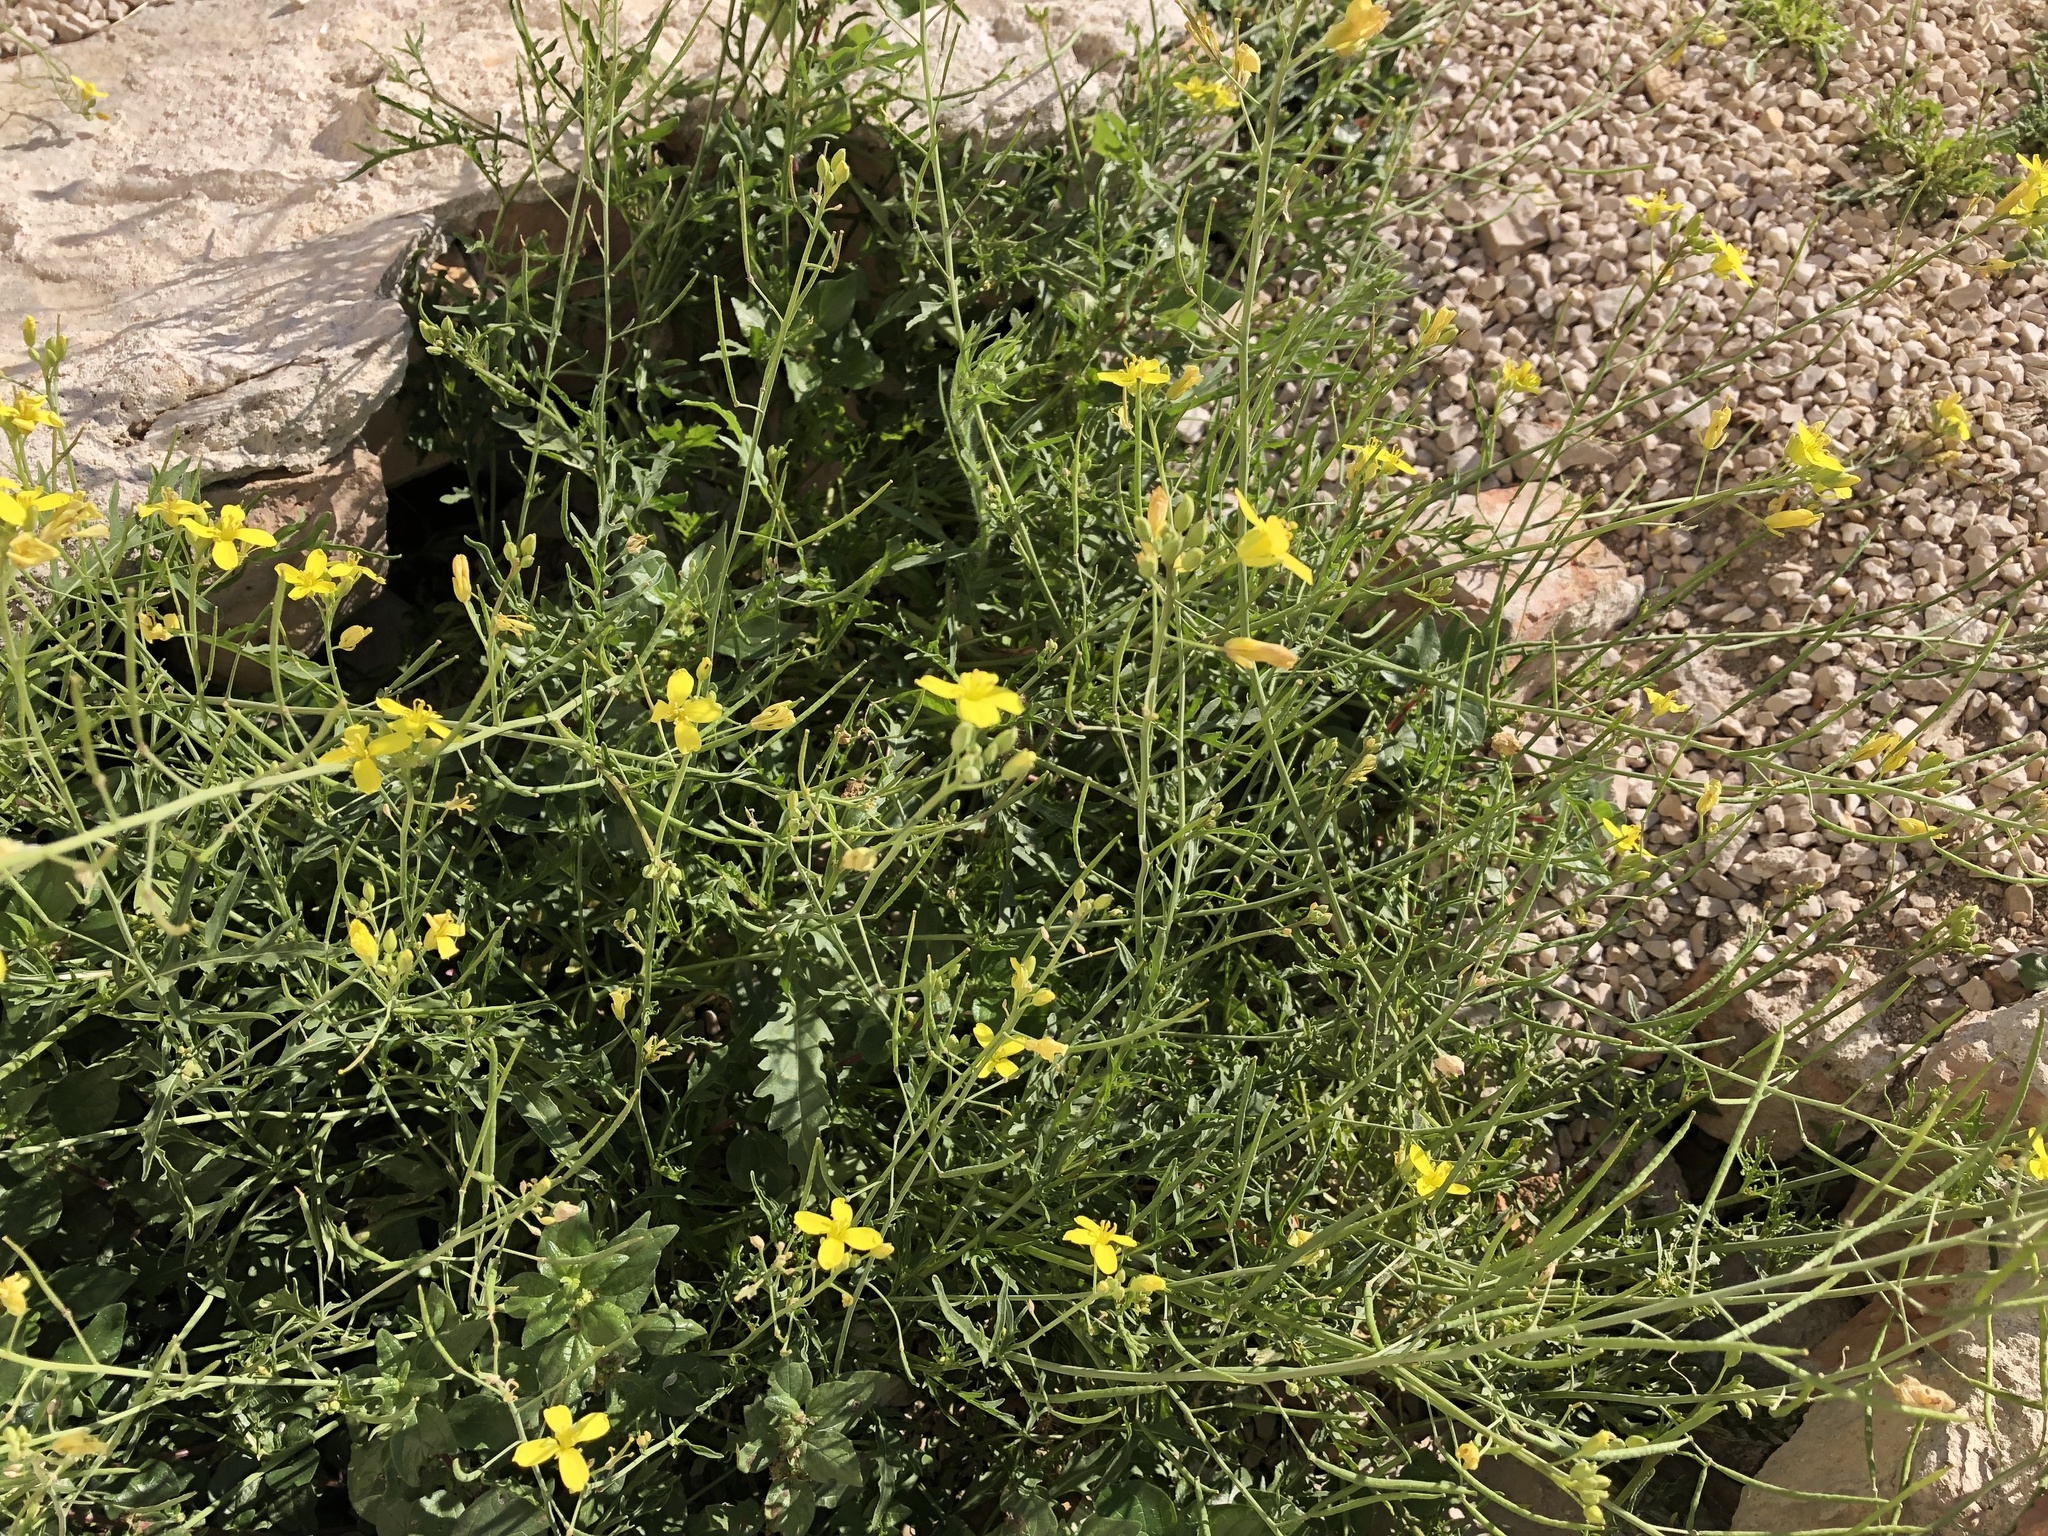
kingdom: Plantae
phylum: Tracheophyta
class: Magnoliopsida
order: Brassicales
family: Brassicaceae
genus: Diplotaxis
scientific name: Diplotaxis tenuifolia
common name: Perennial wall-rocket
